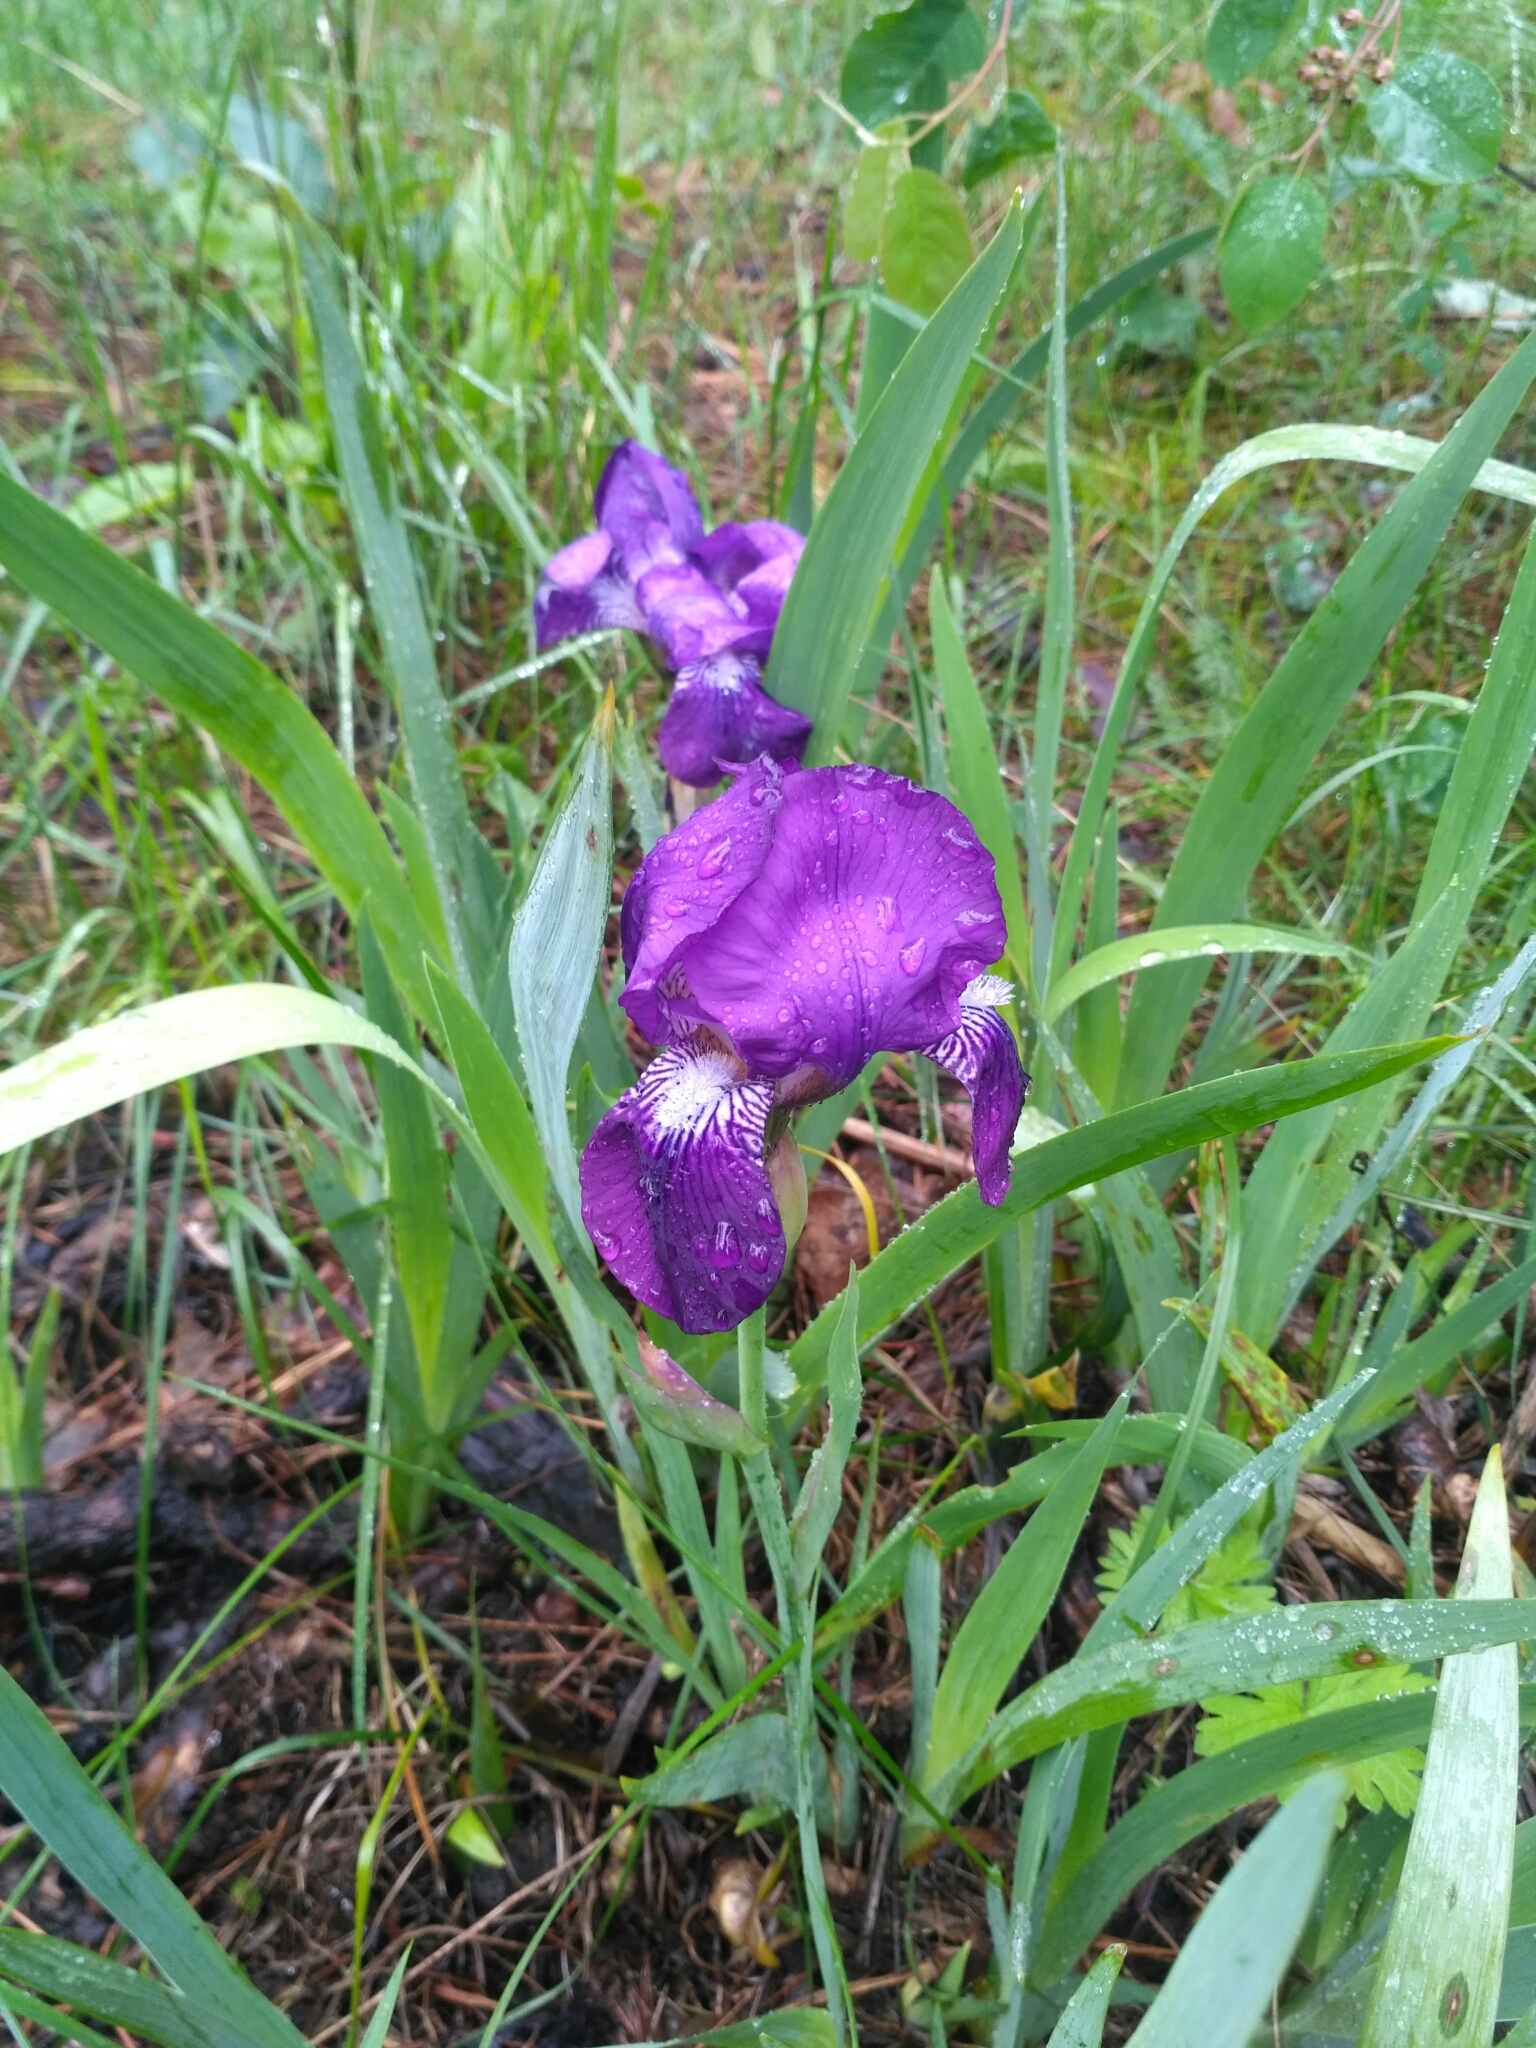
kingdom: Plantae
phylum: Tracheophyta
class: Liliopsida
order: Asparagales
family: Iridaceae
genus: Iris
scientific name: Iris aphylla
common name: Stool iris
